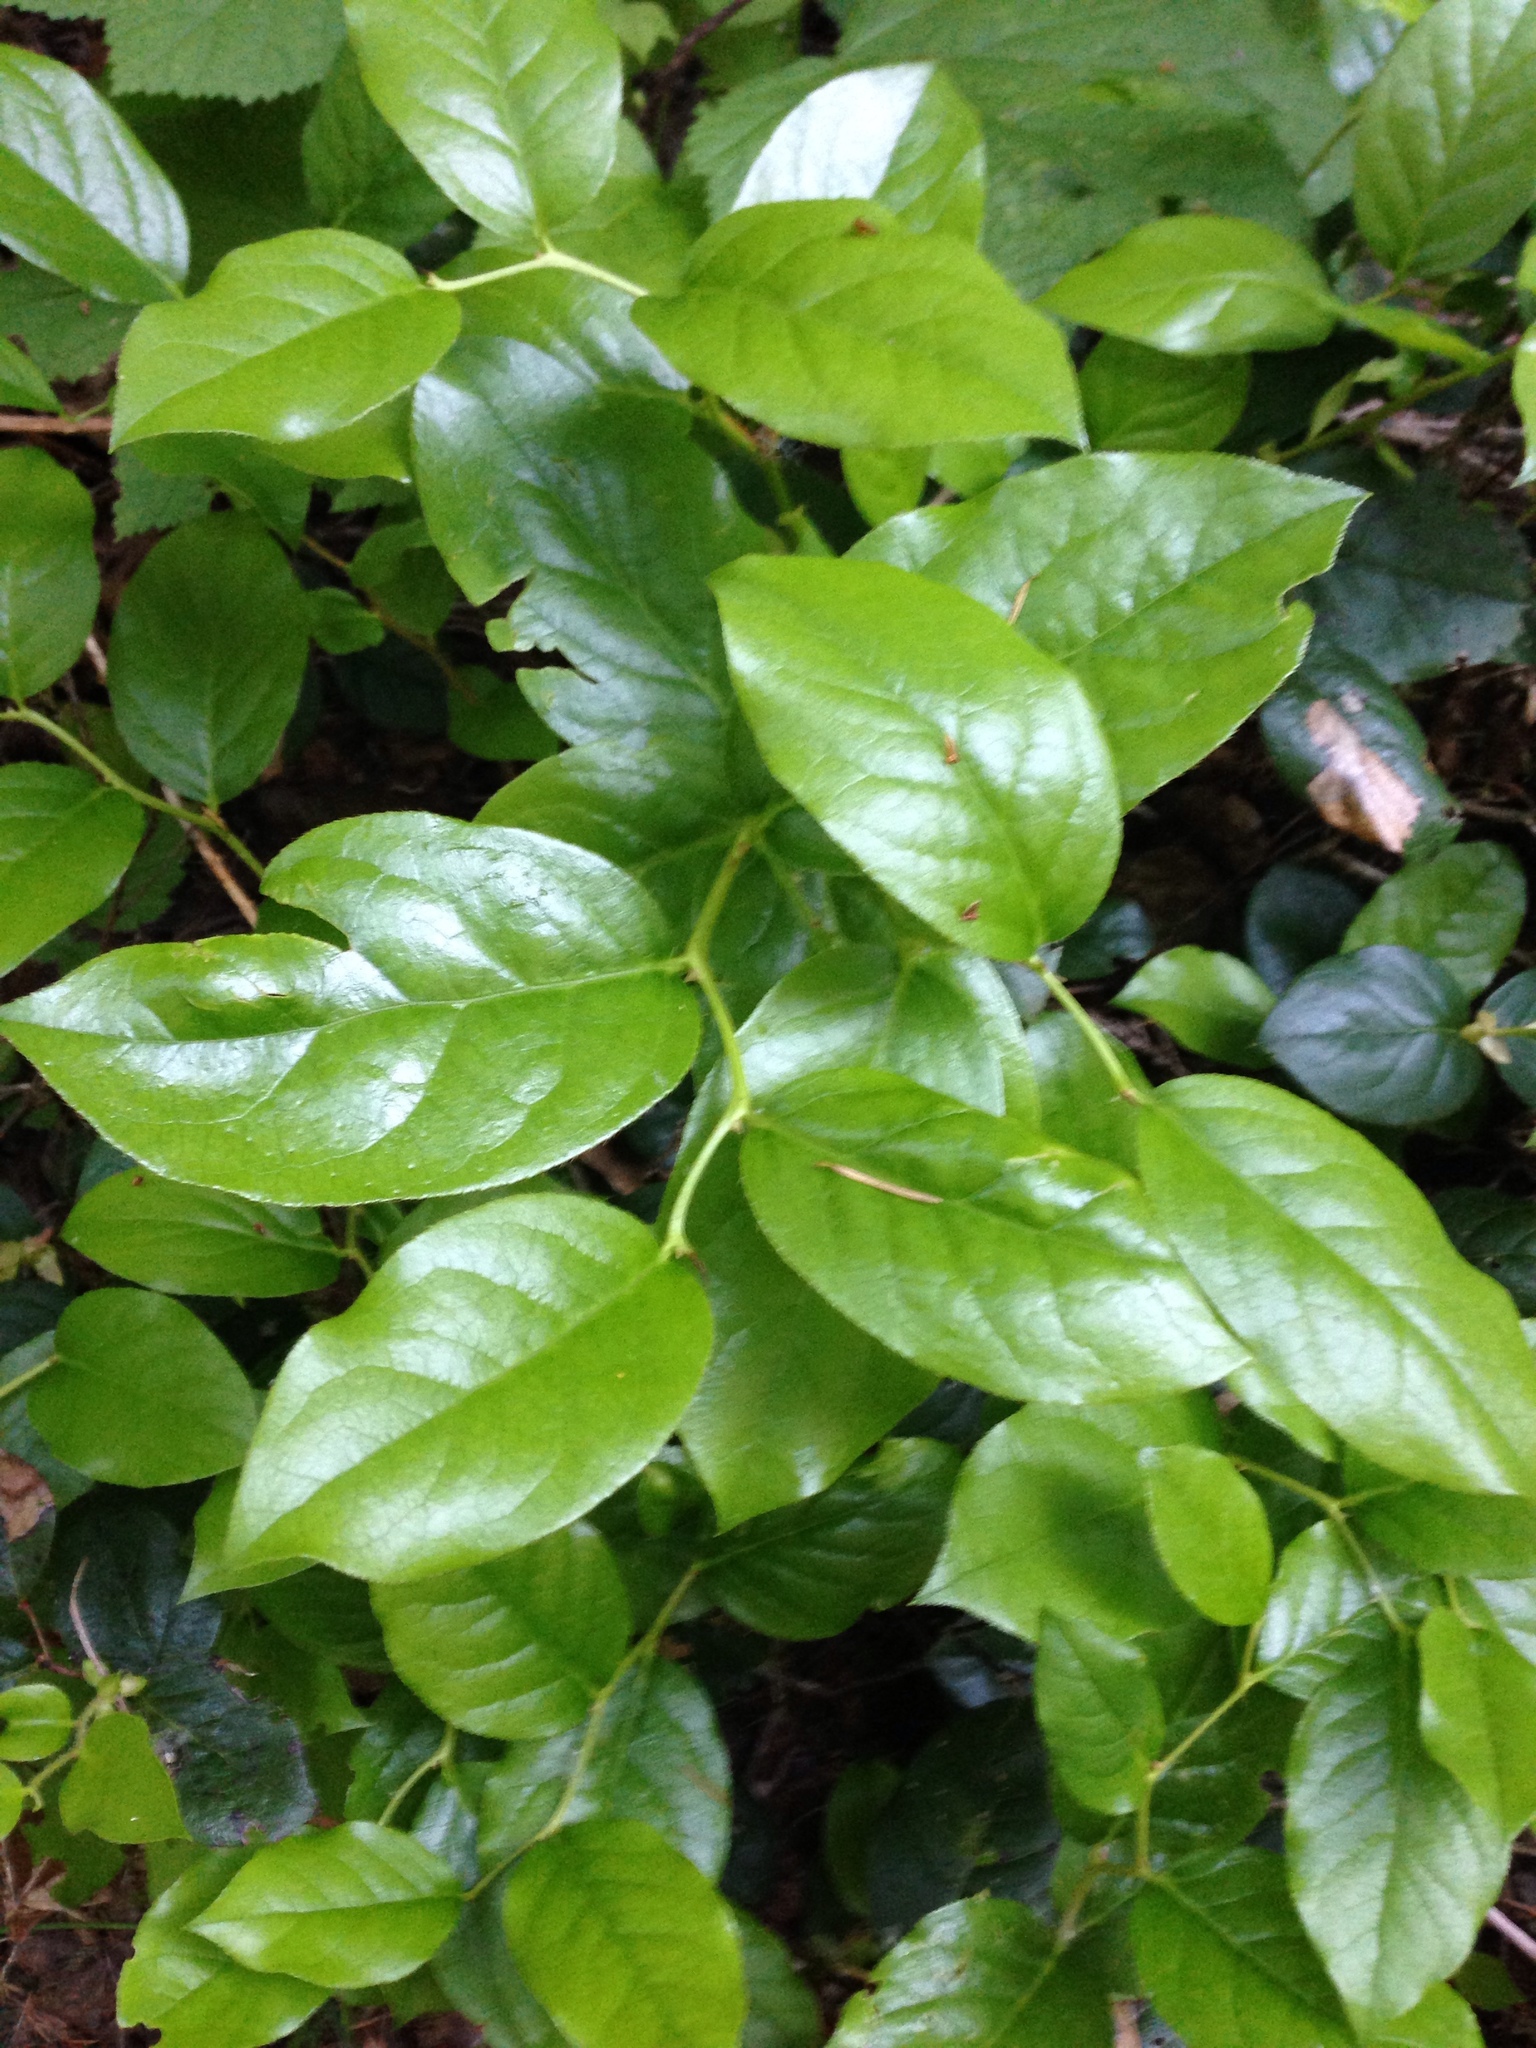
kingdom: Plantae
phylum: Tracheophyta
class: Magnoliopsida
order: Ericales
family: Ericaceae
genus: Gaultheria
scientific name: Gaultheria shallon
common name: Shallon
